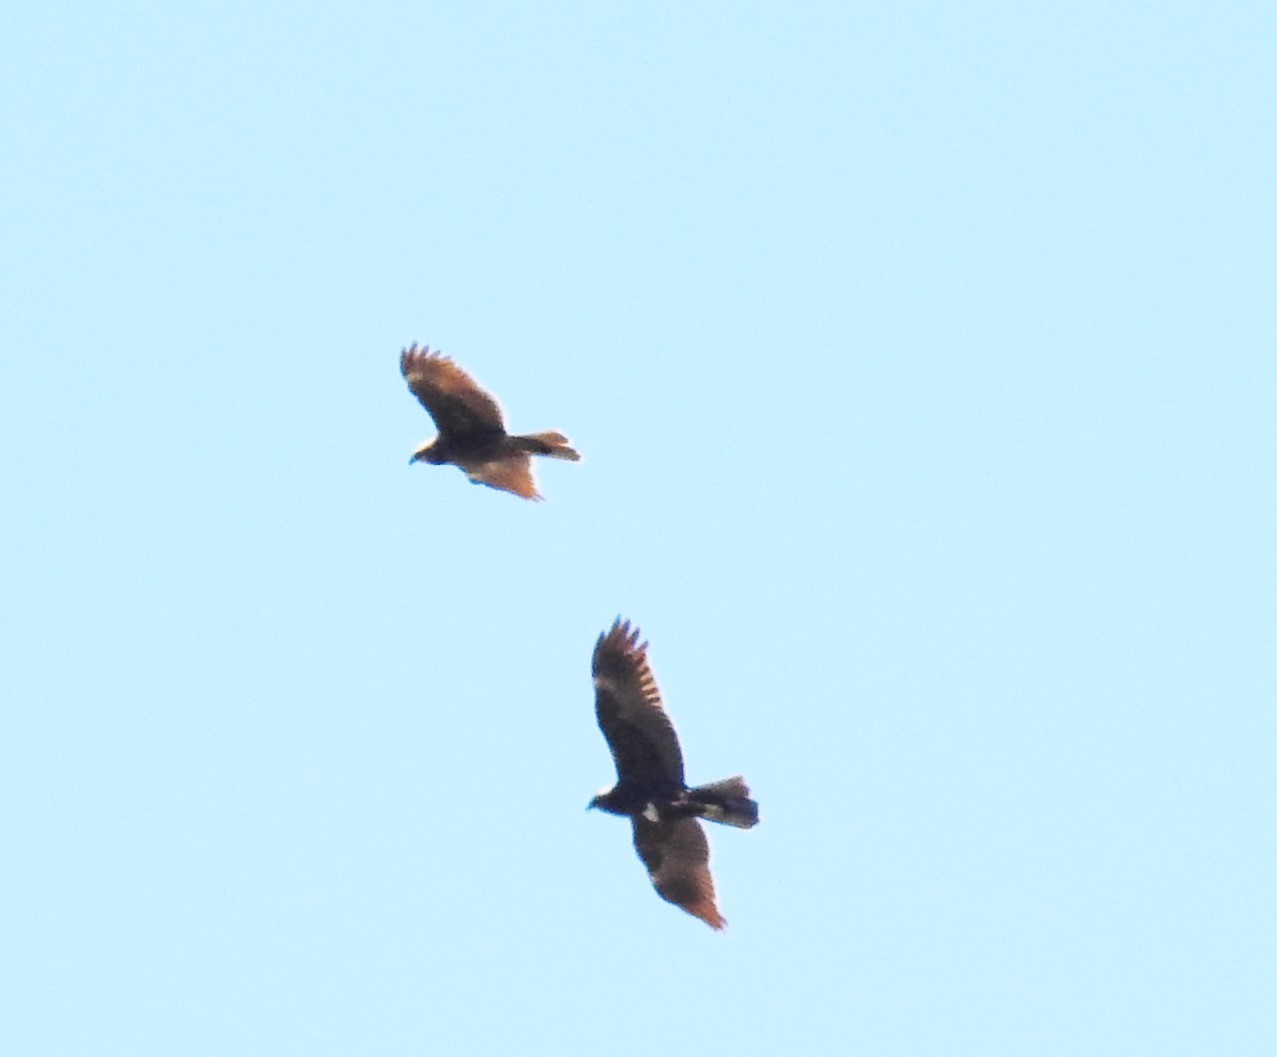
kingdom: Animalia
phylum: Chordata
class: Aves
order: Accipitriformes
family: Accipitridae
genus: Buteo
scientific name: Buteo buteo
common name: Common buzzard
